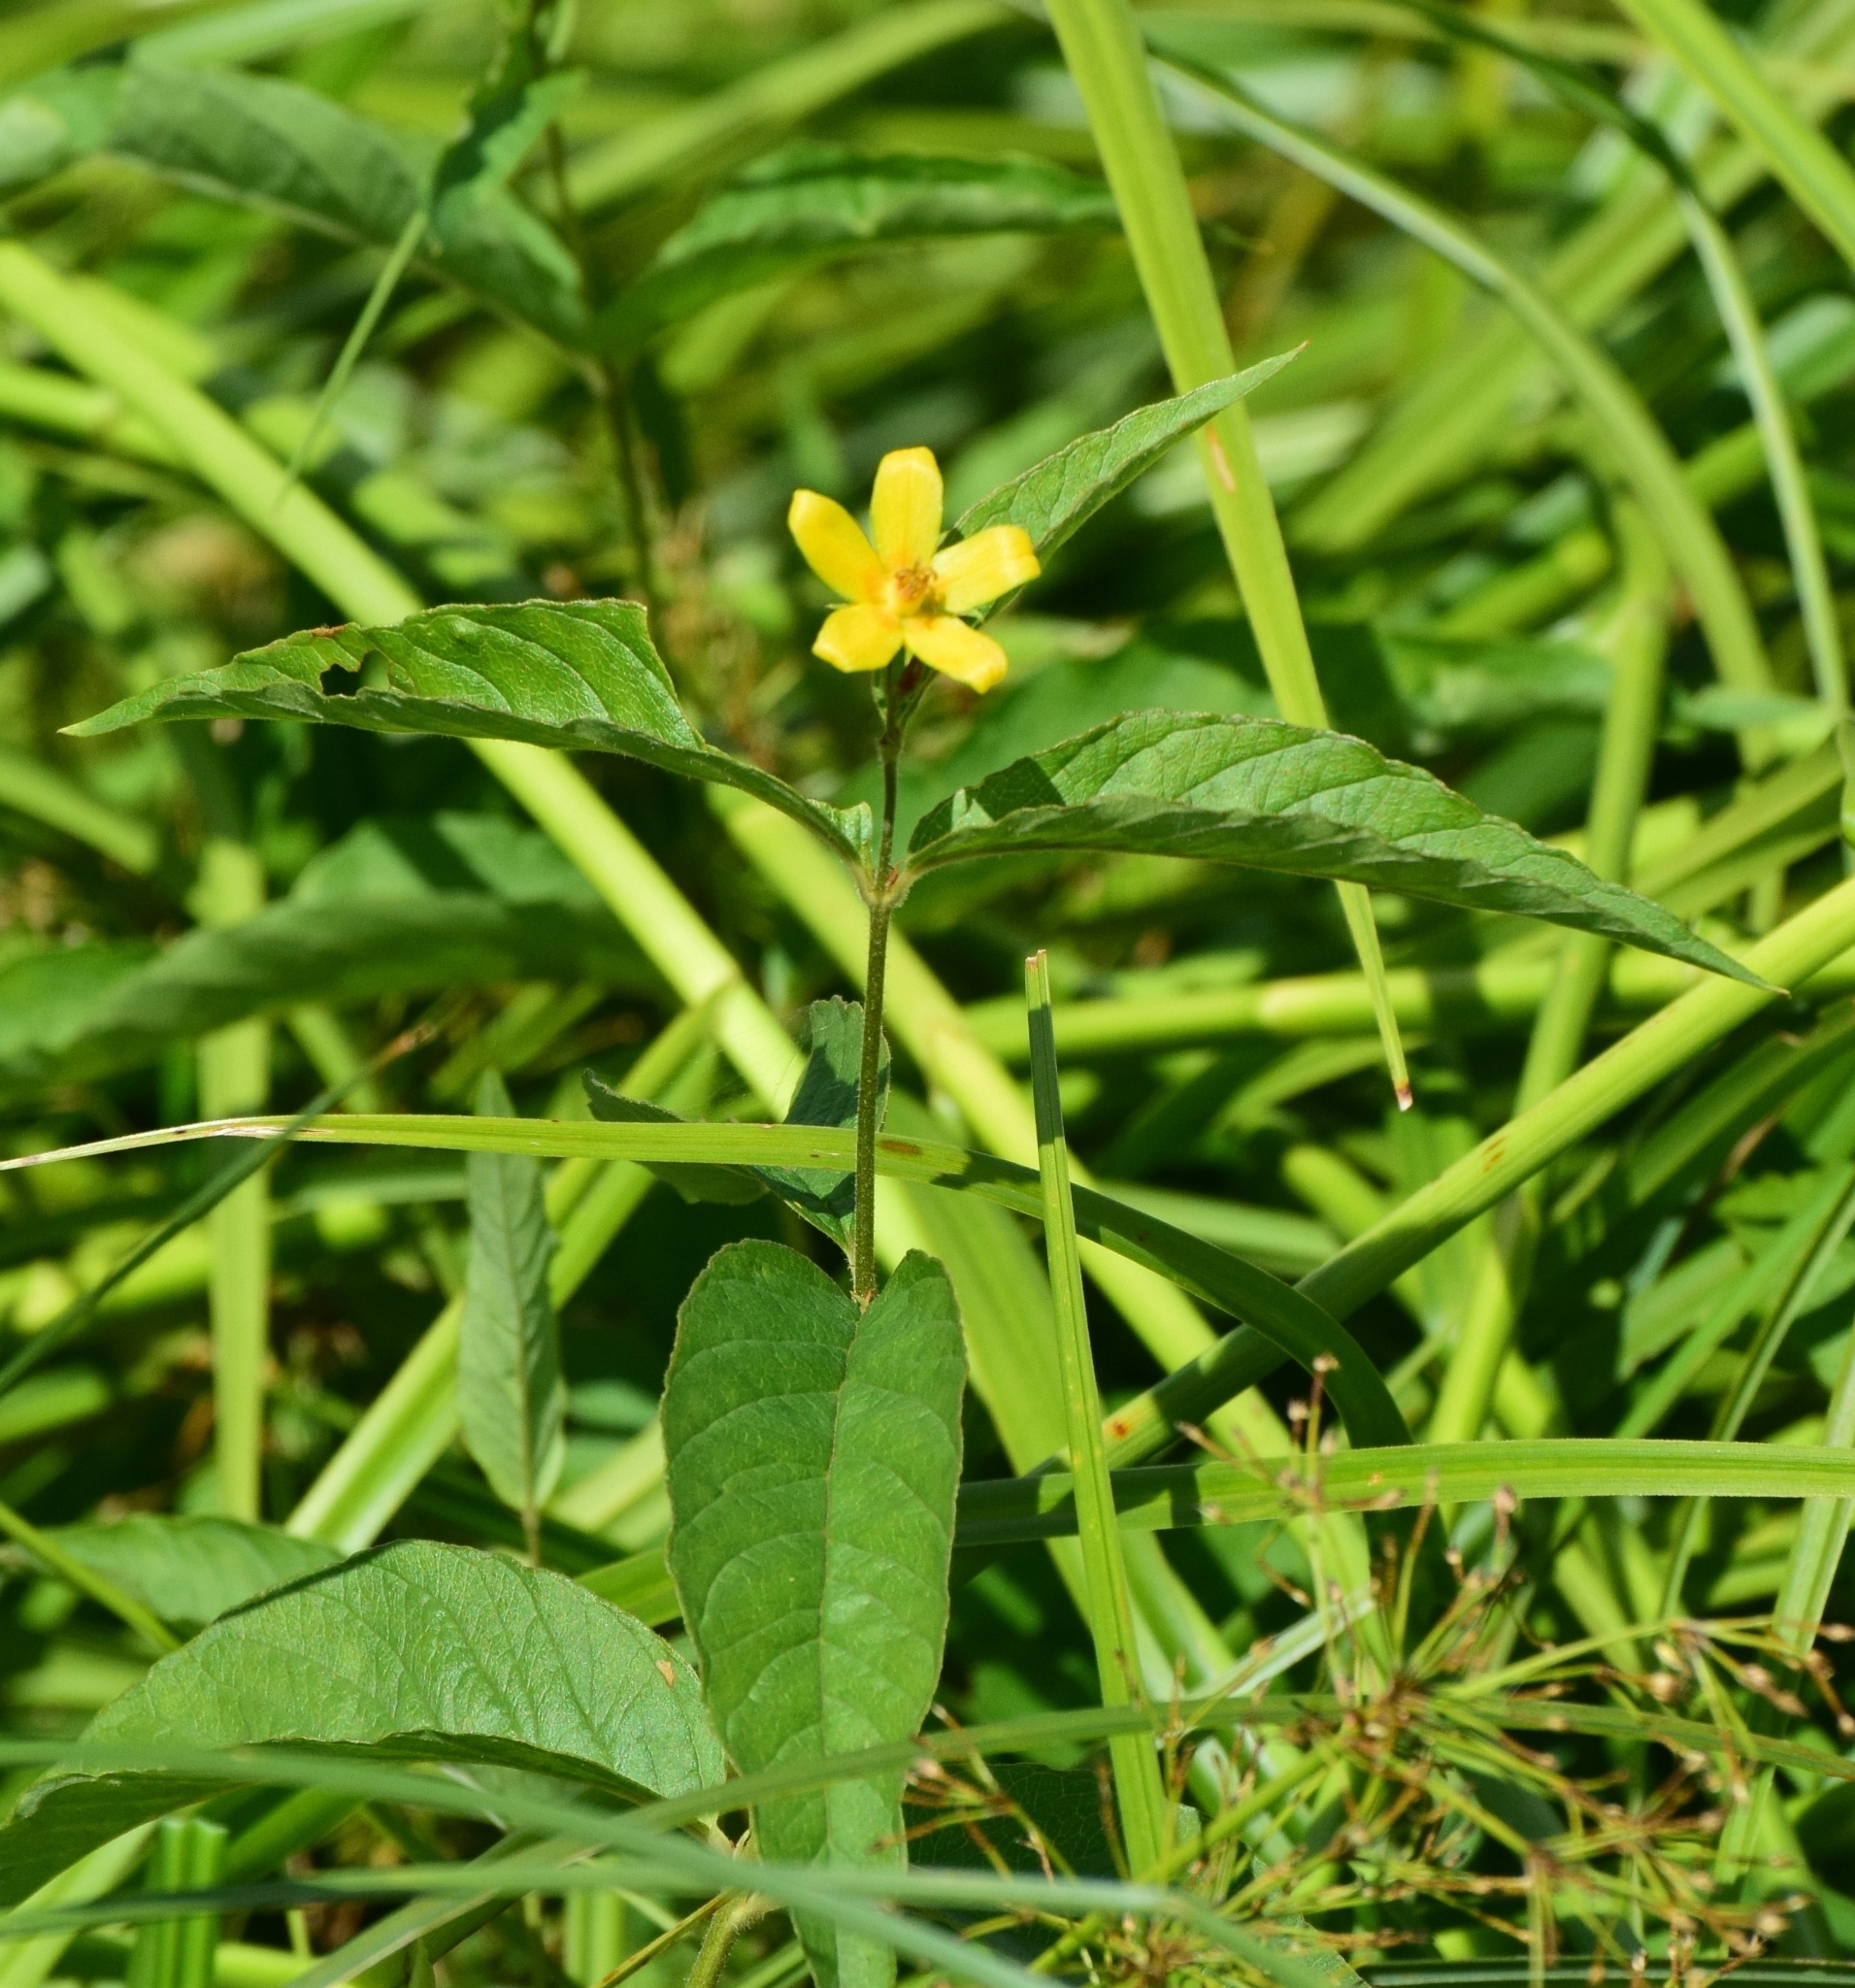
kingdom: Plantae
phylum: Tracheophyta
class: Magnoliopsida
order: Ericales
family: Primulaceae
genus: Lysimachia
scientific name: Lysimachia vulgaris
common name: Yellow loosestrife
